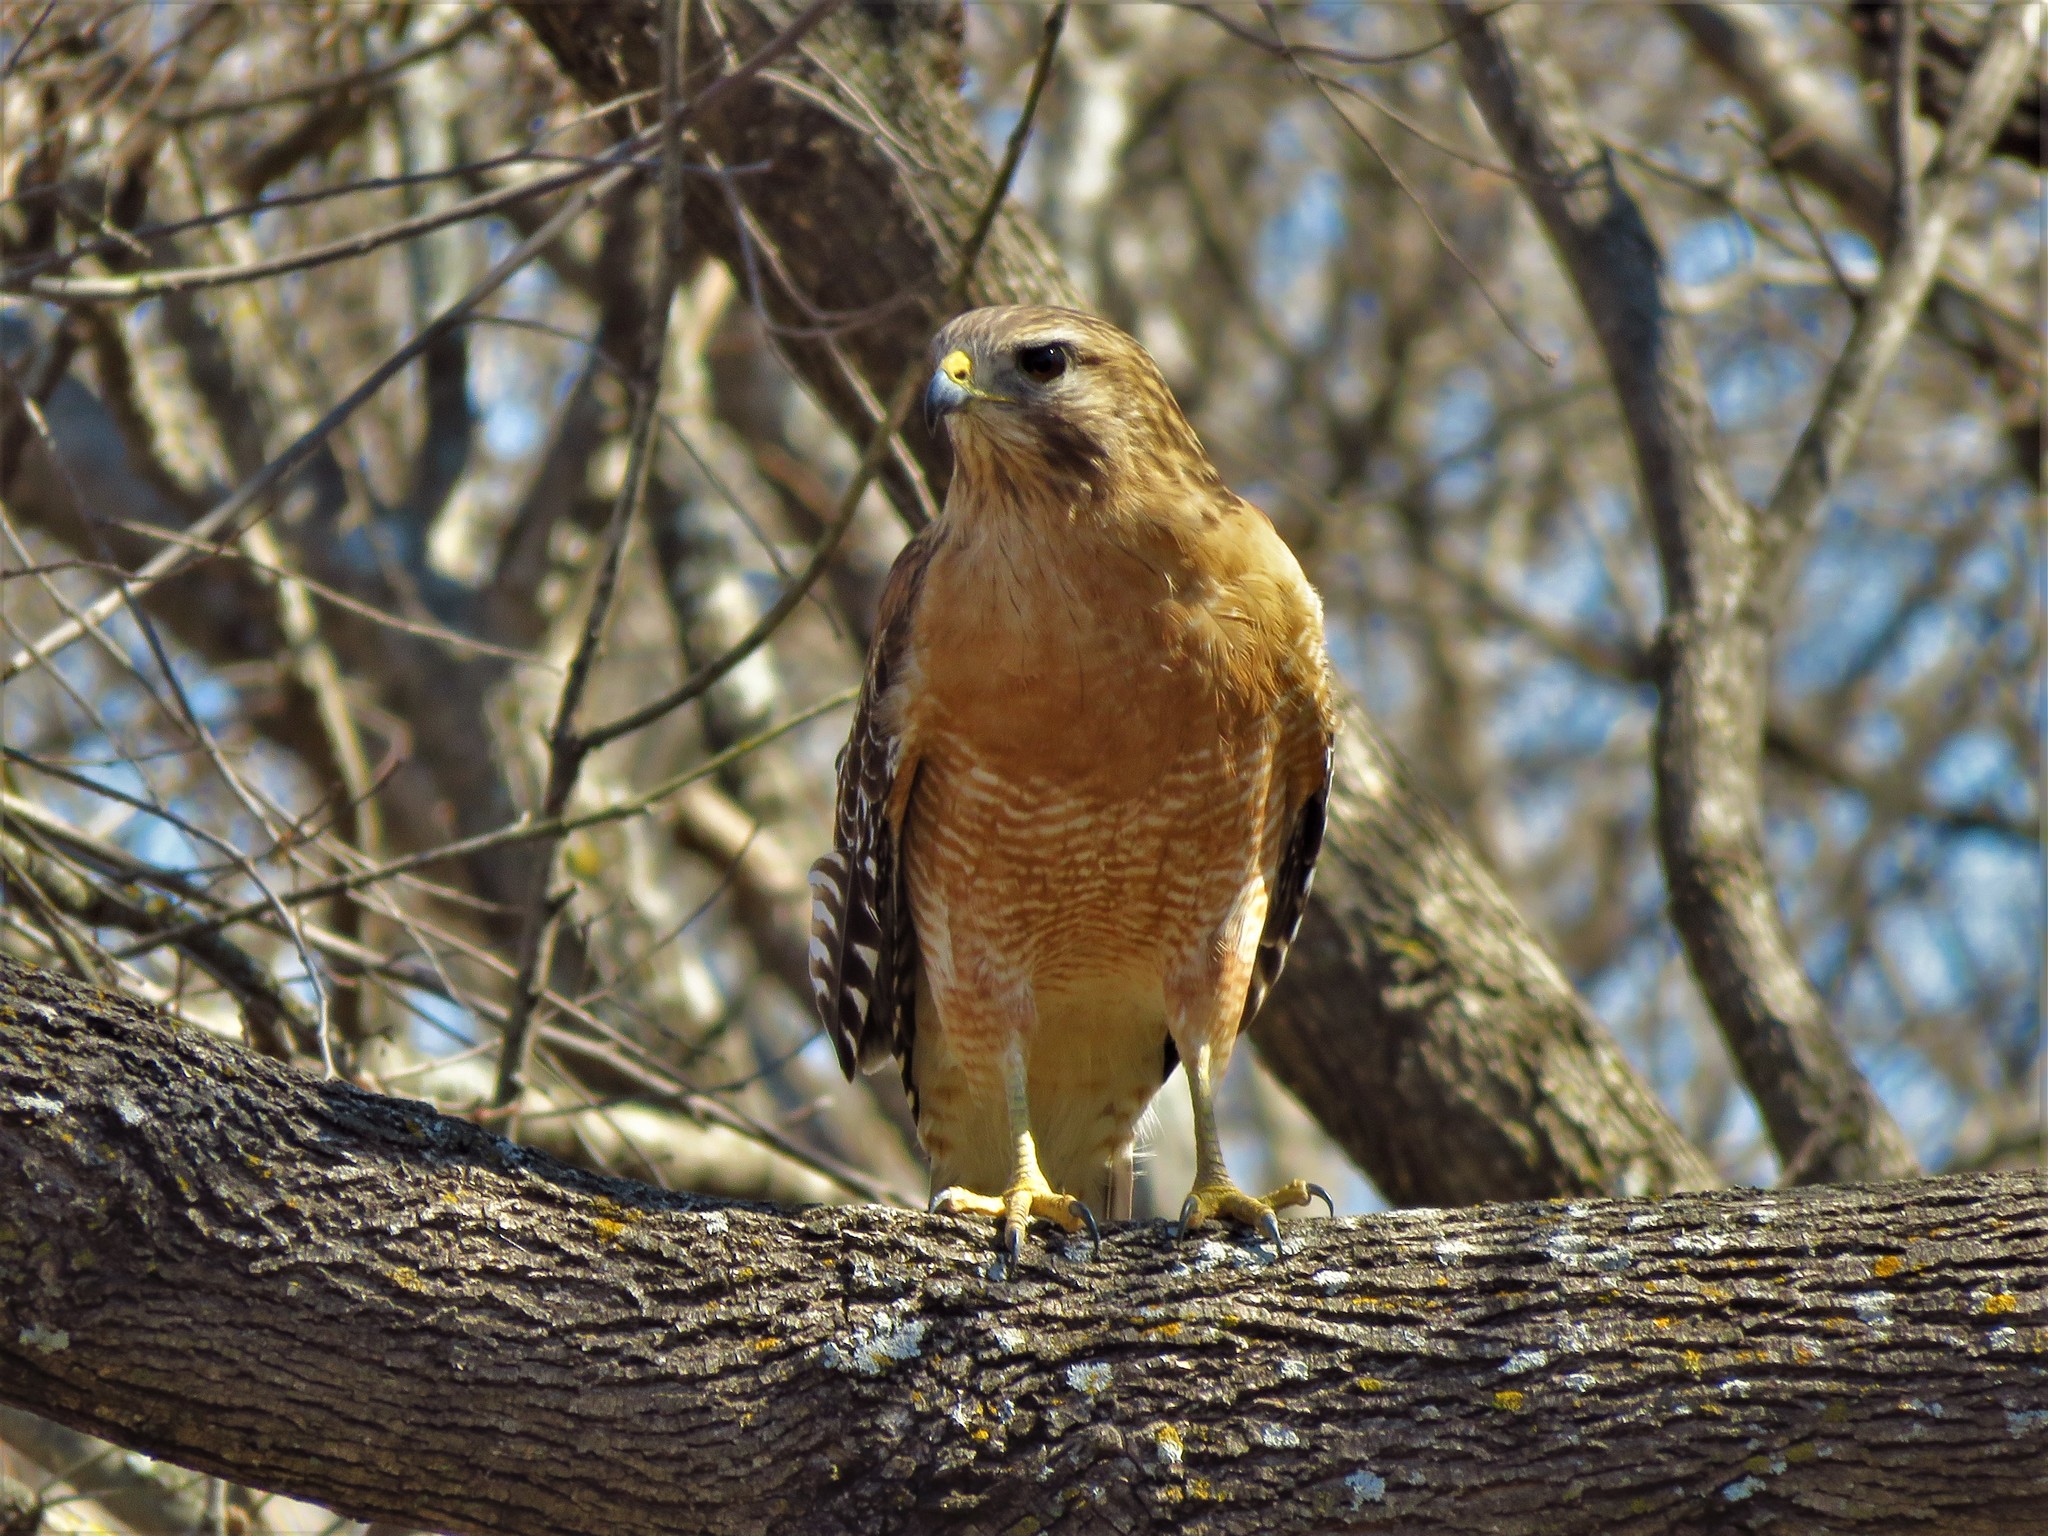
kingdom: Animalia
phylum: Chordata
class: Aves
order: Accipitriformes
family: Accipitridae
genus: Buteo
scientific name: Buteo lineatus
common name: Red-shouldered hawk
